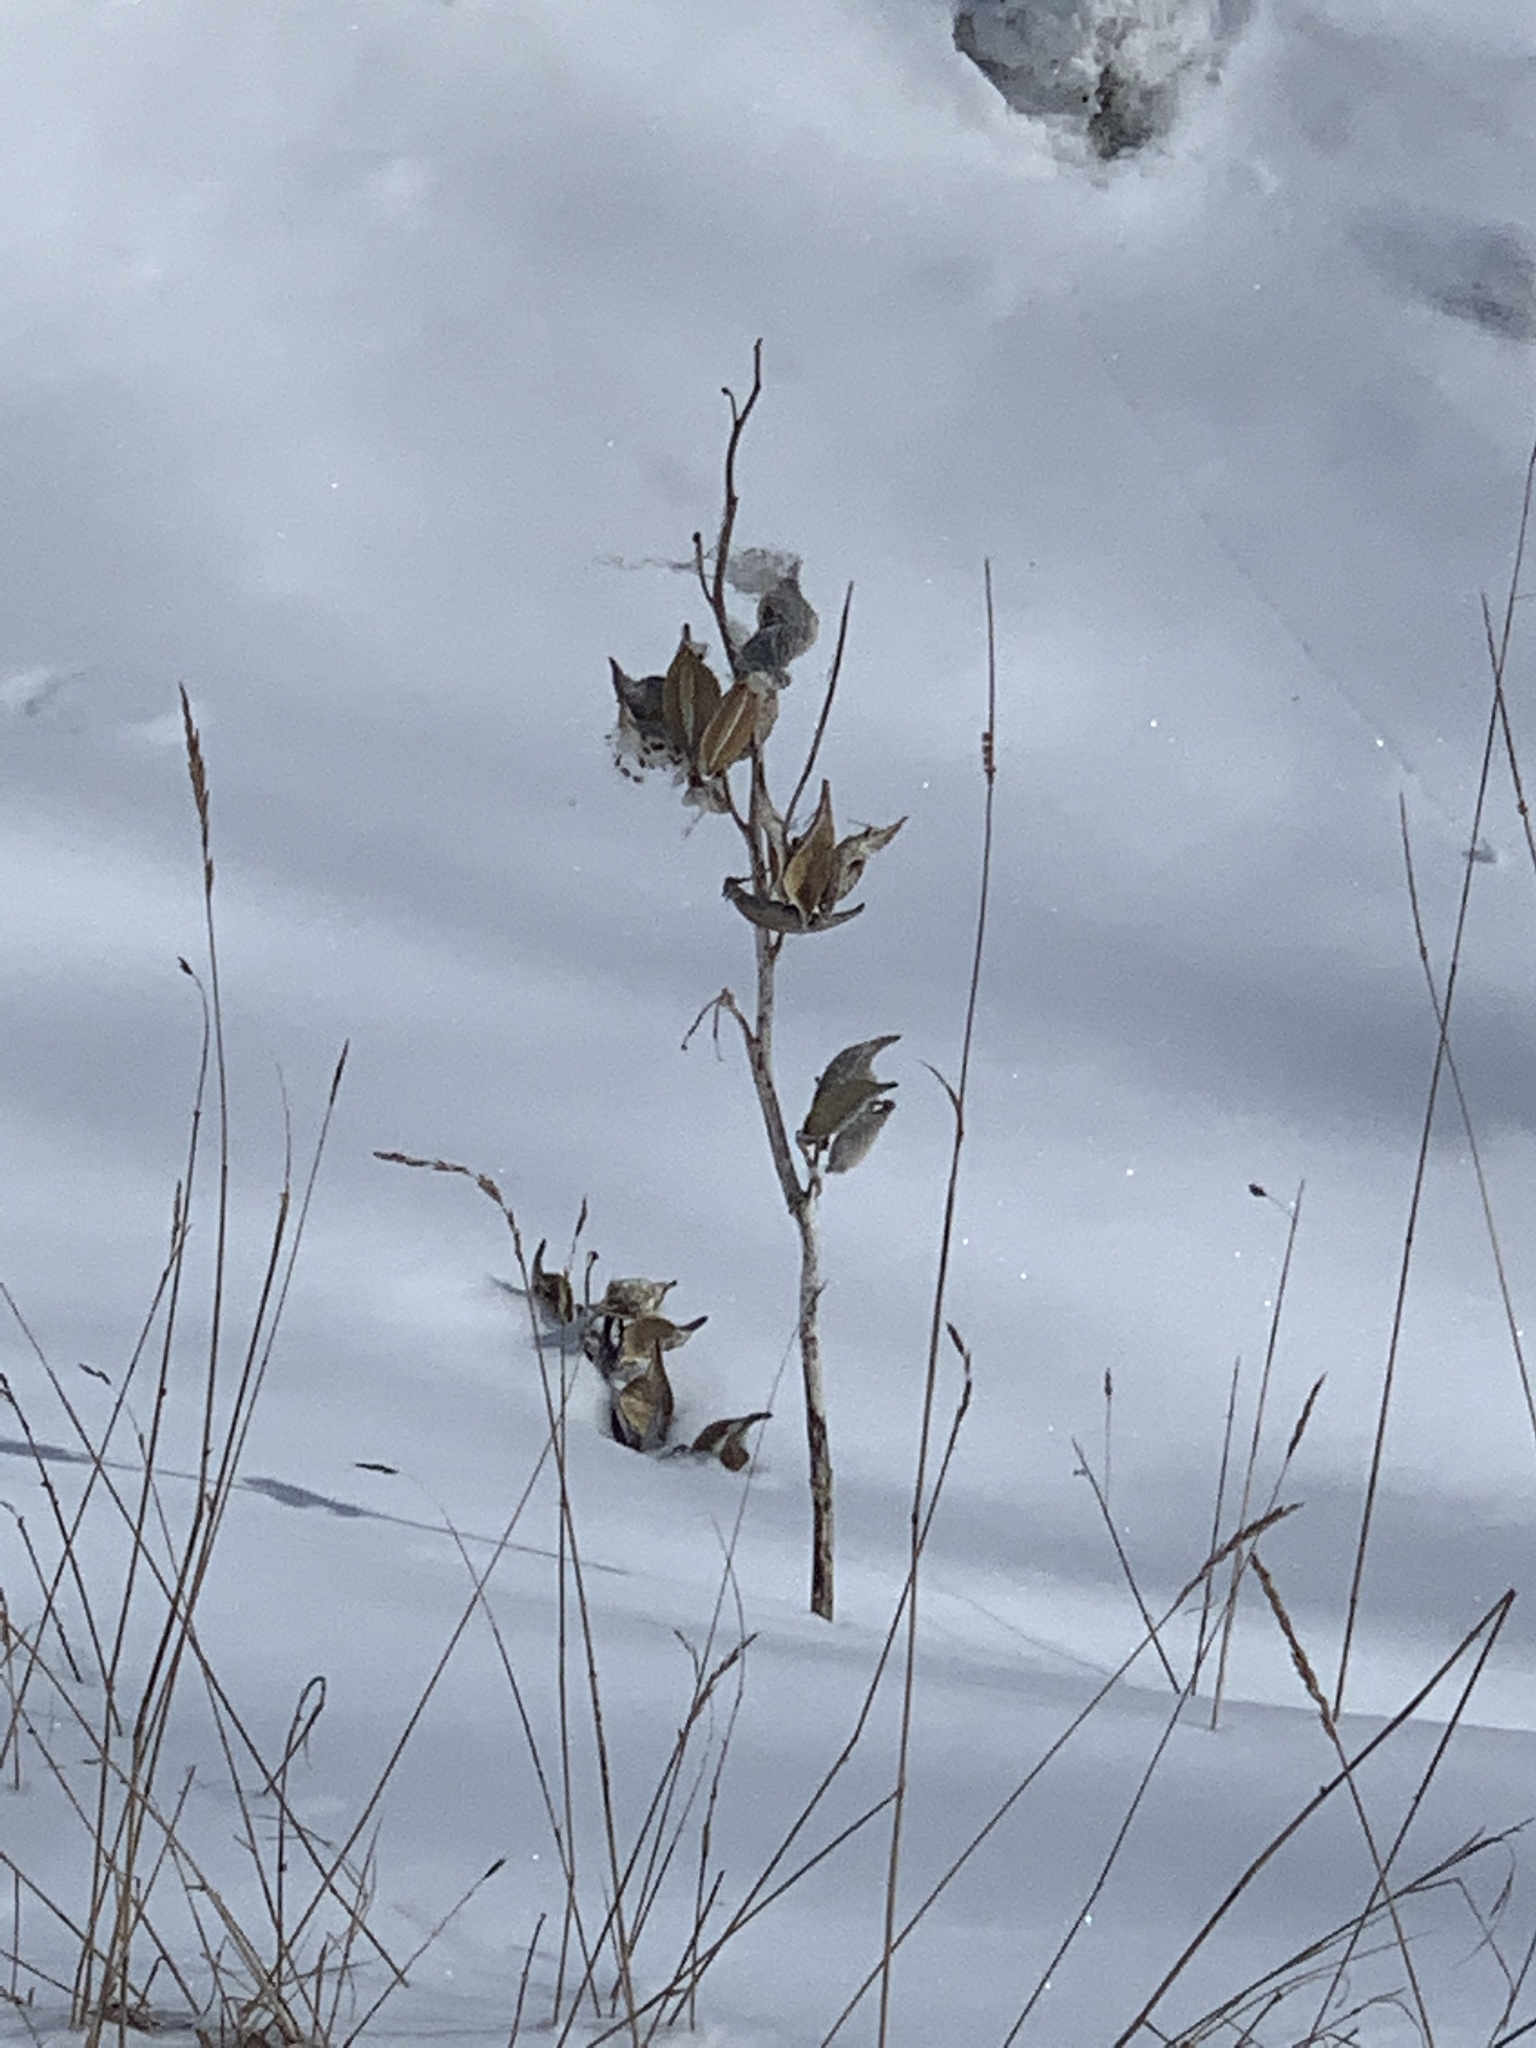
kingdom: Plantae
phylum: Tracheophyta
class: Magnoliopsida
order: Gentianales
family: Apocynaceae
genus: Asclepias
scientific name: Asclepias syriaca
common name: Common milkweed
